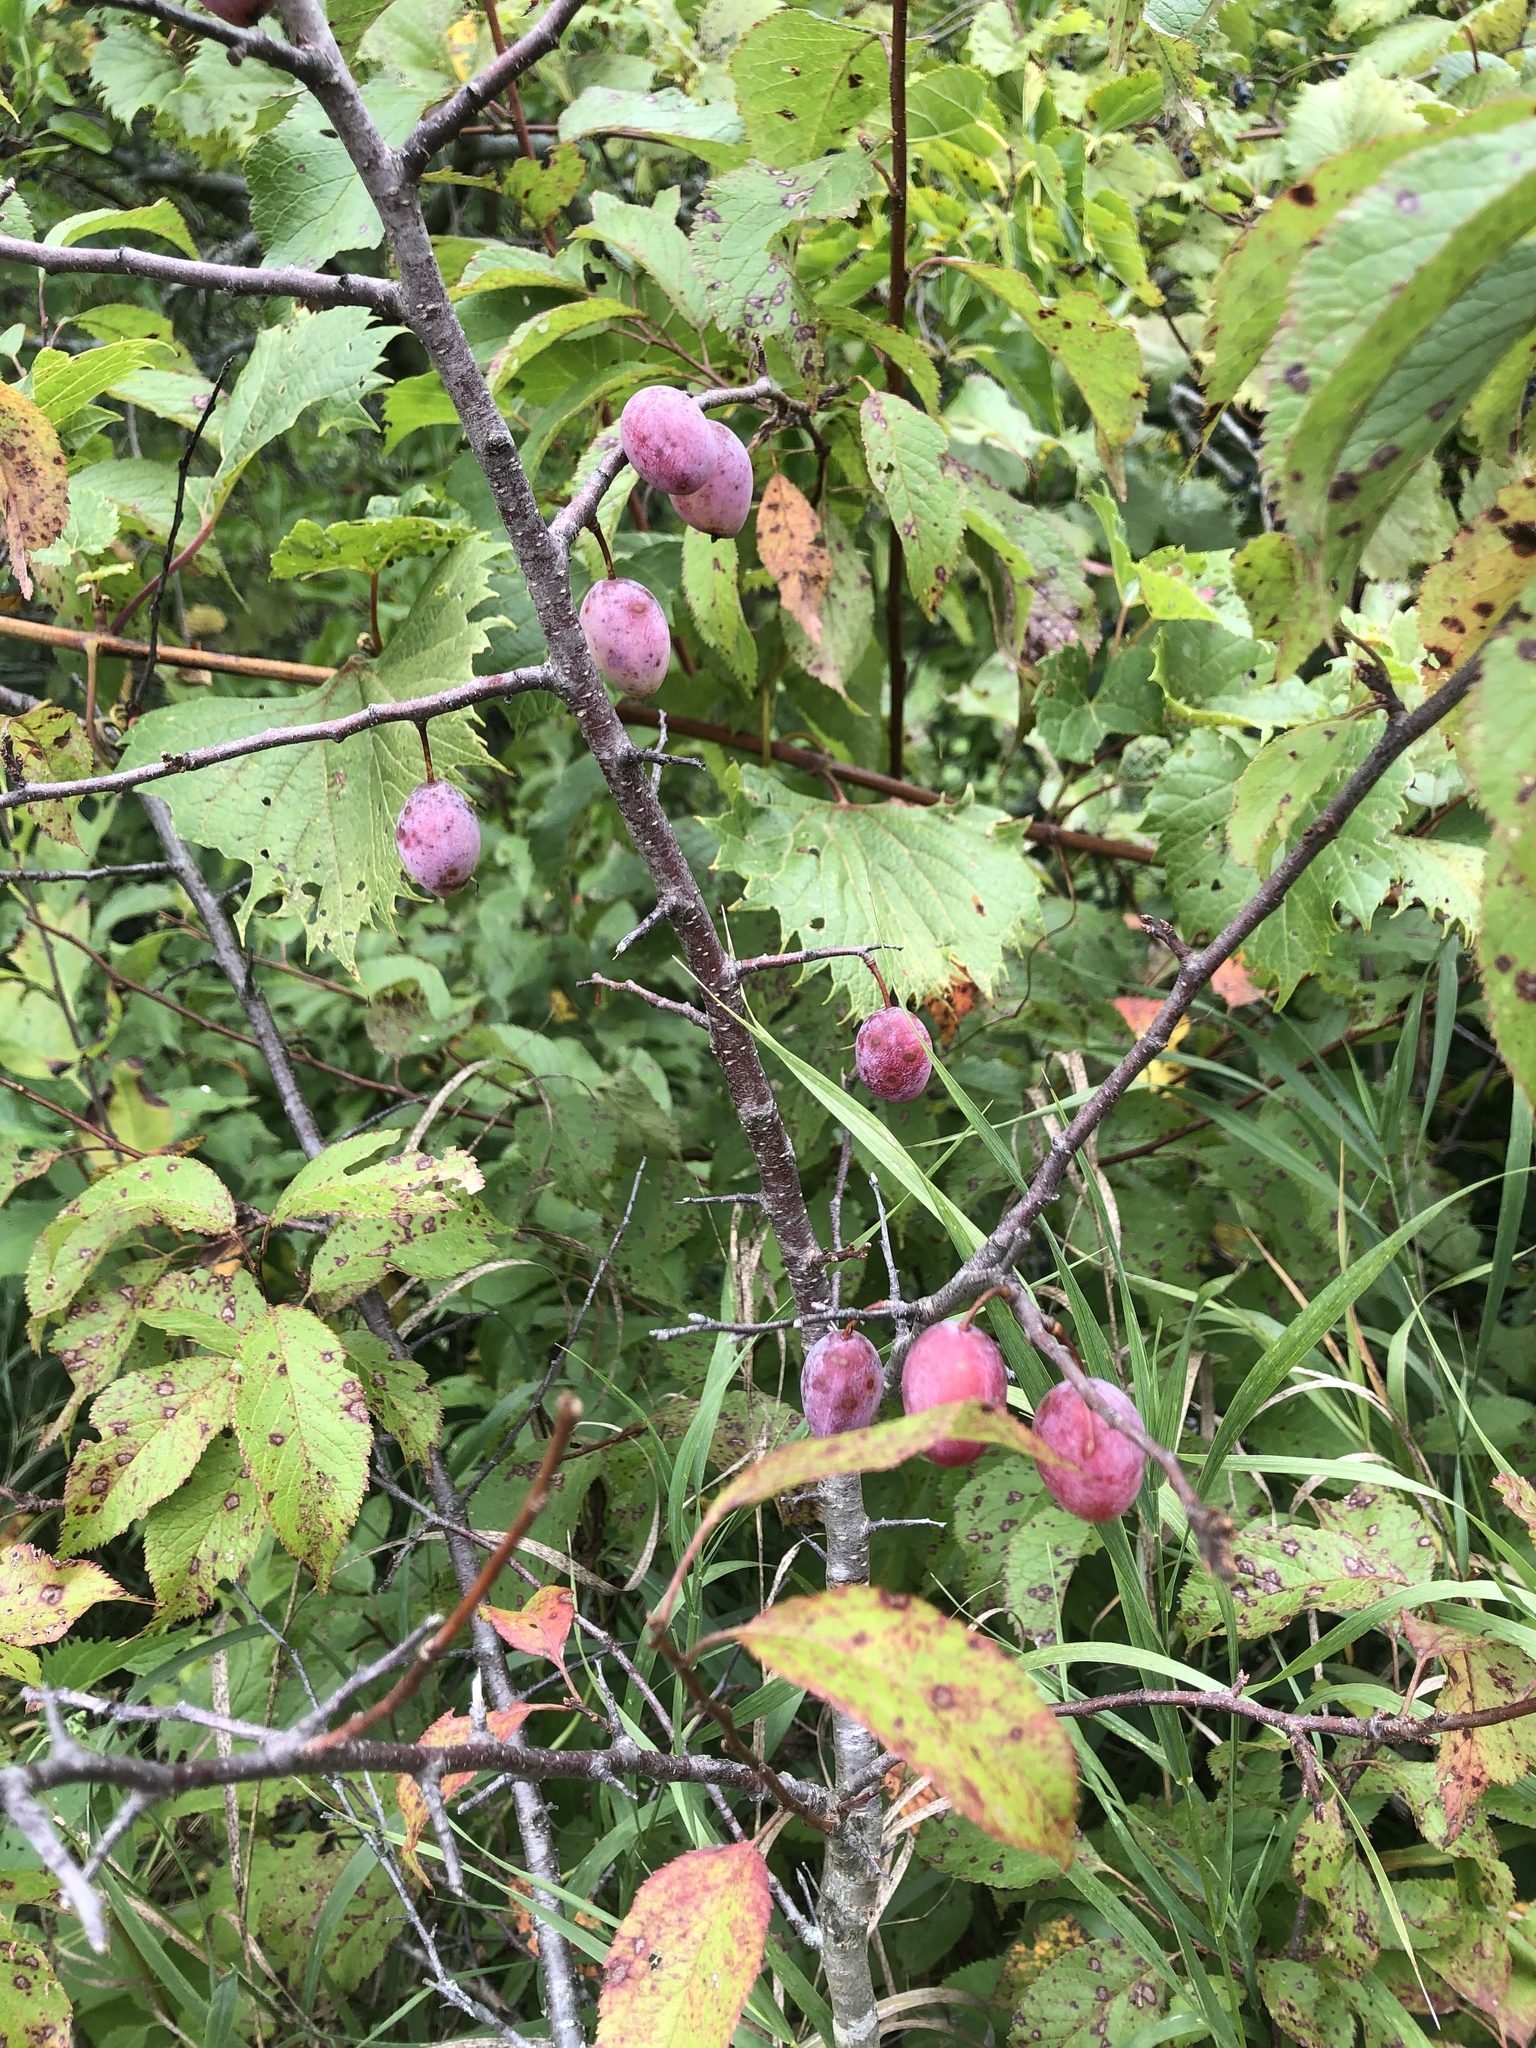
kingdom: Plantae
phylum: Tracheophyta
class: Magnoliopsida
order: Rosales
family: Rosaceae
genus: Prunus
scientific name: Prunus americana
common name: American plum
